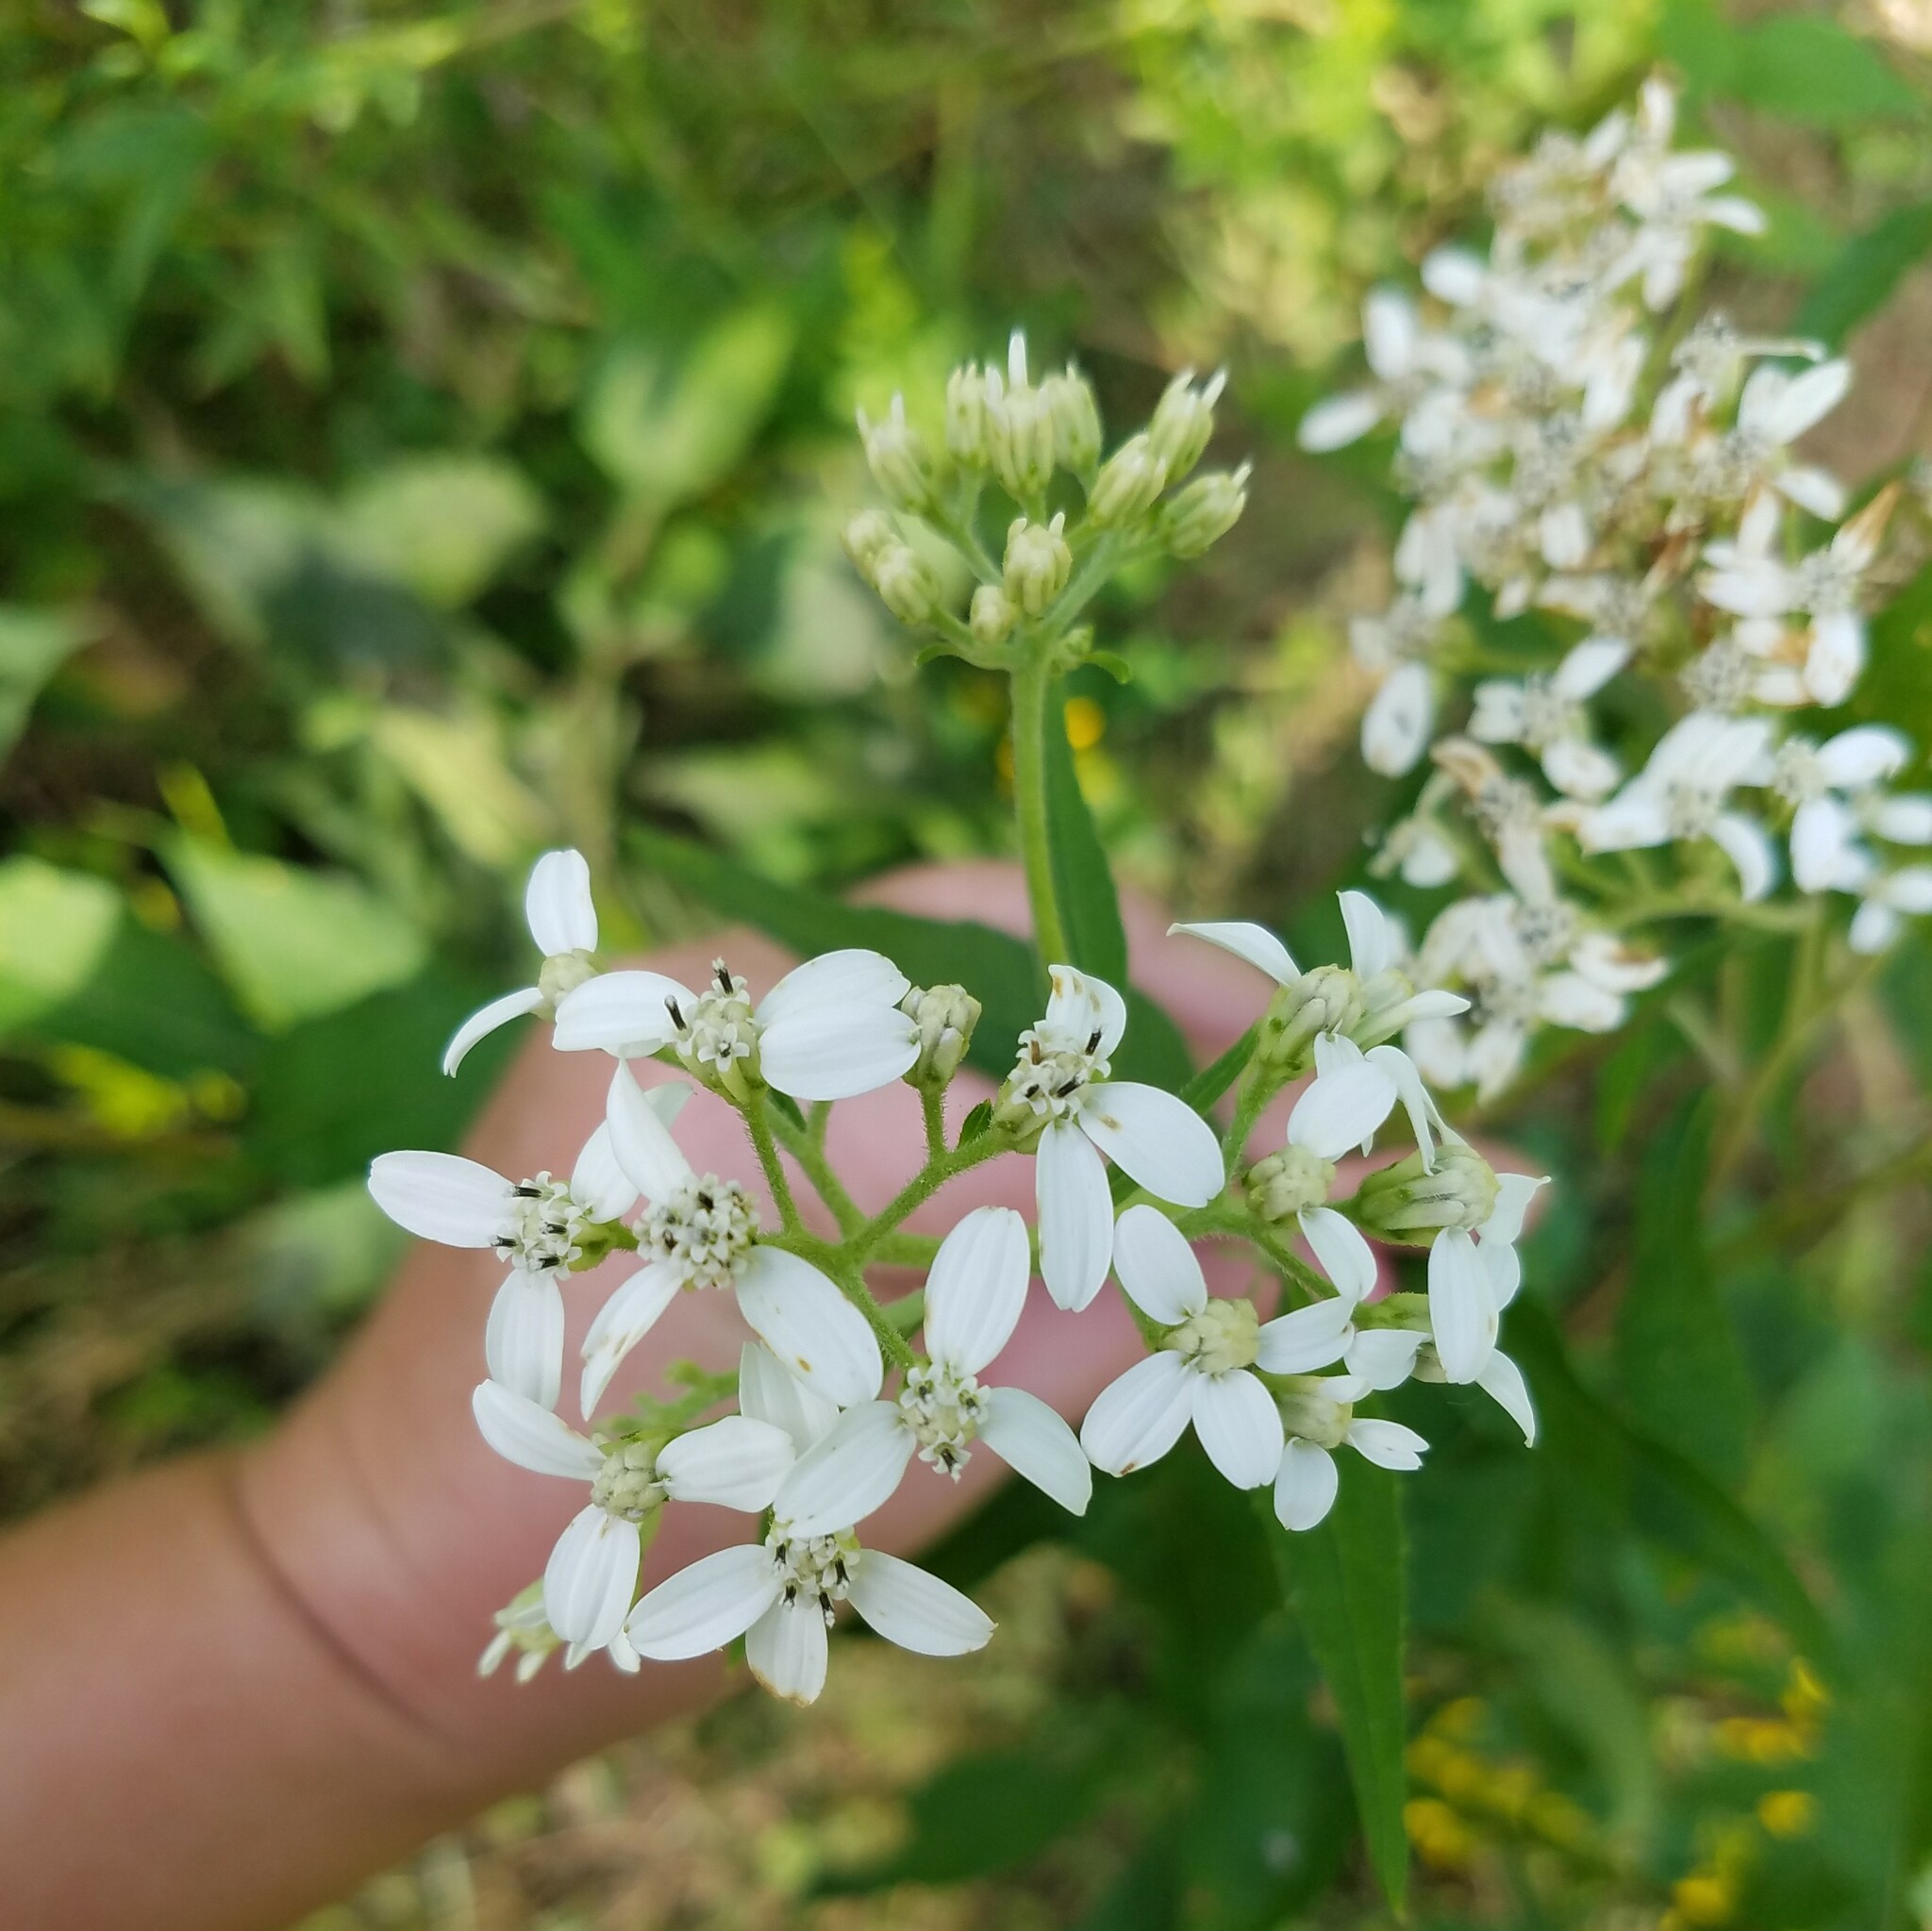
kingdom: Plantae
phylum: Tracheophyta
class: Magnoliopsida
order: Asterales
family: Asteraceae
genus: Verbesina
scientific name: Verbesina virginica
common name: Frostweed
